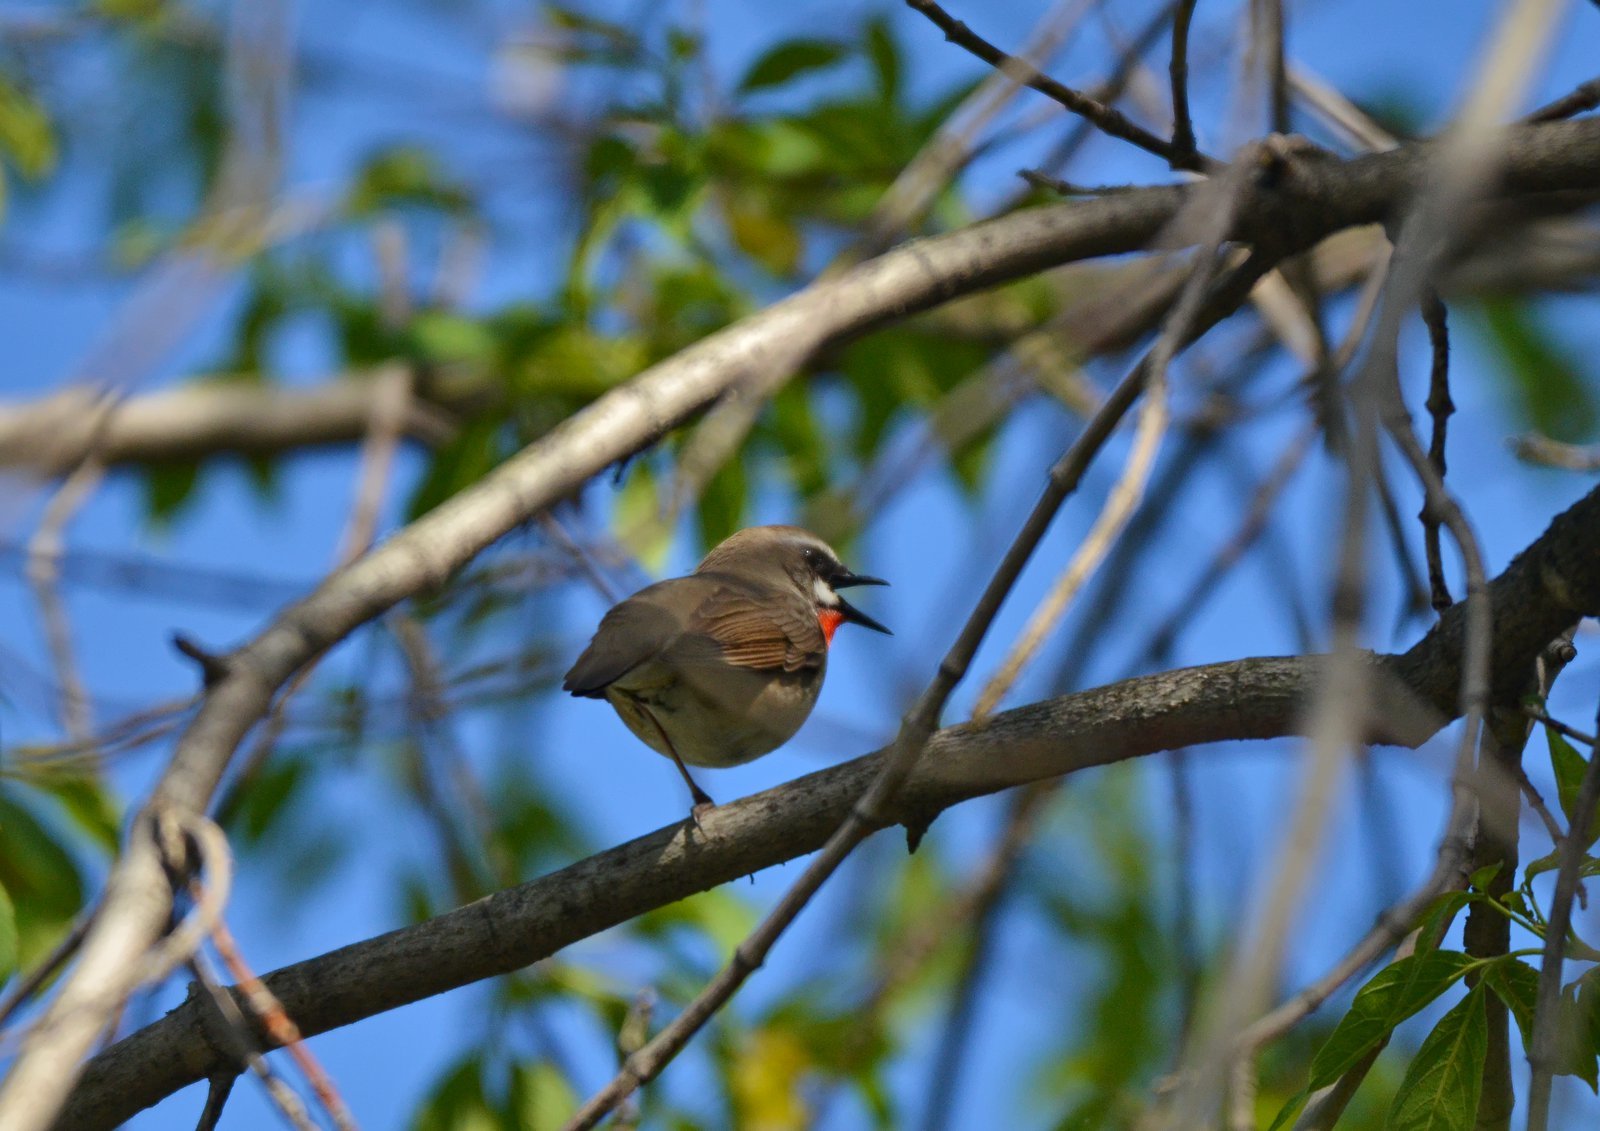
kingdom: Animalia
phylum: Chordata
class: Aves
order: Passeriformes
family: Muscicapidae
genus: Luscinia
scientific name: Luscinia calliope
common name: Siberian rubythroat
